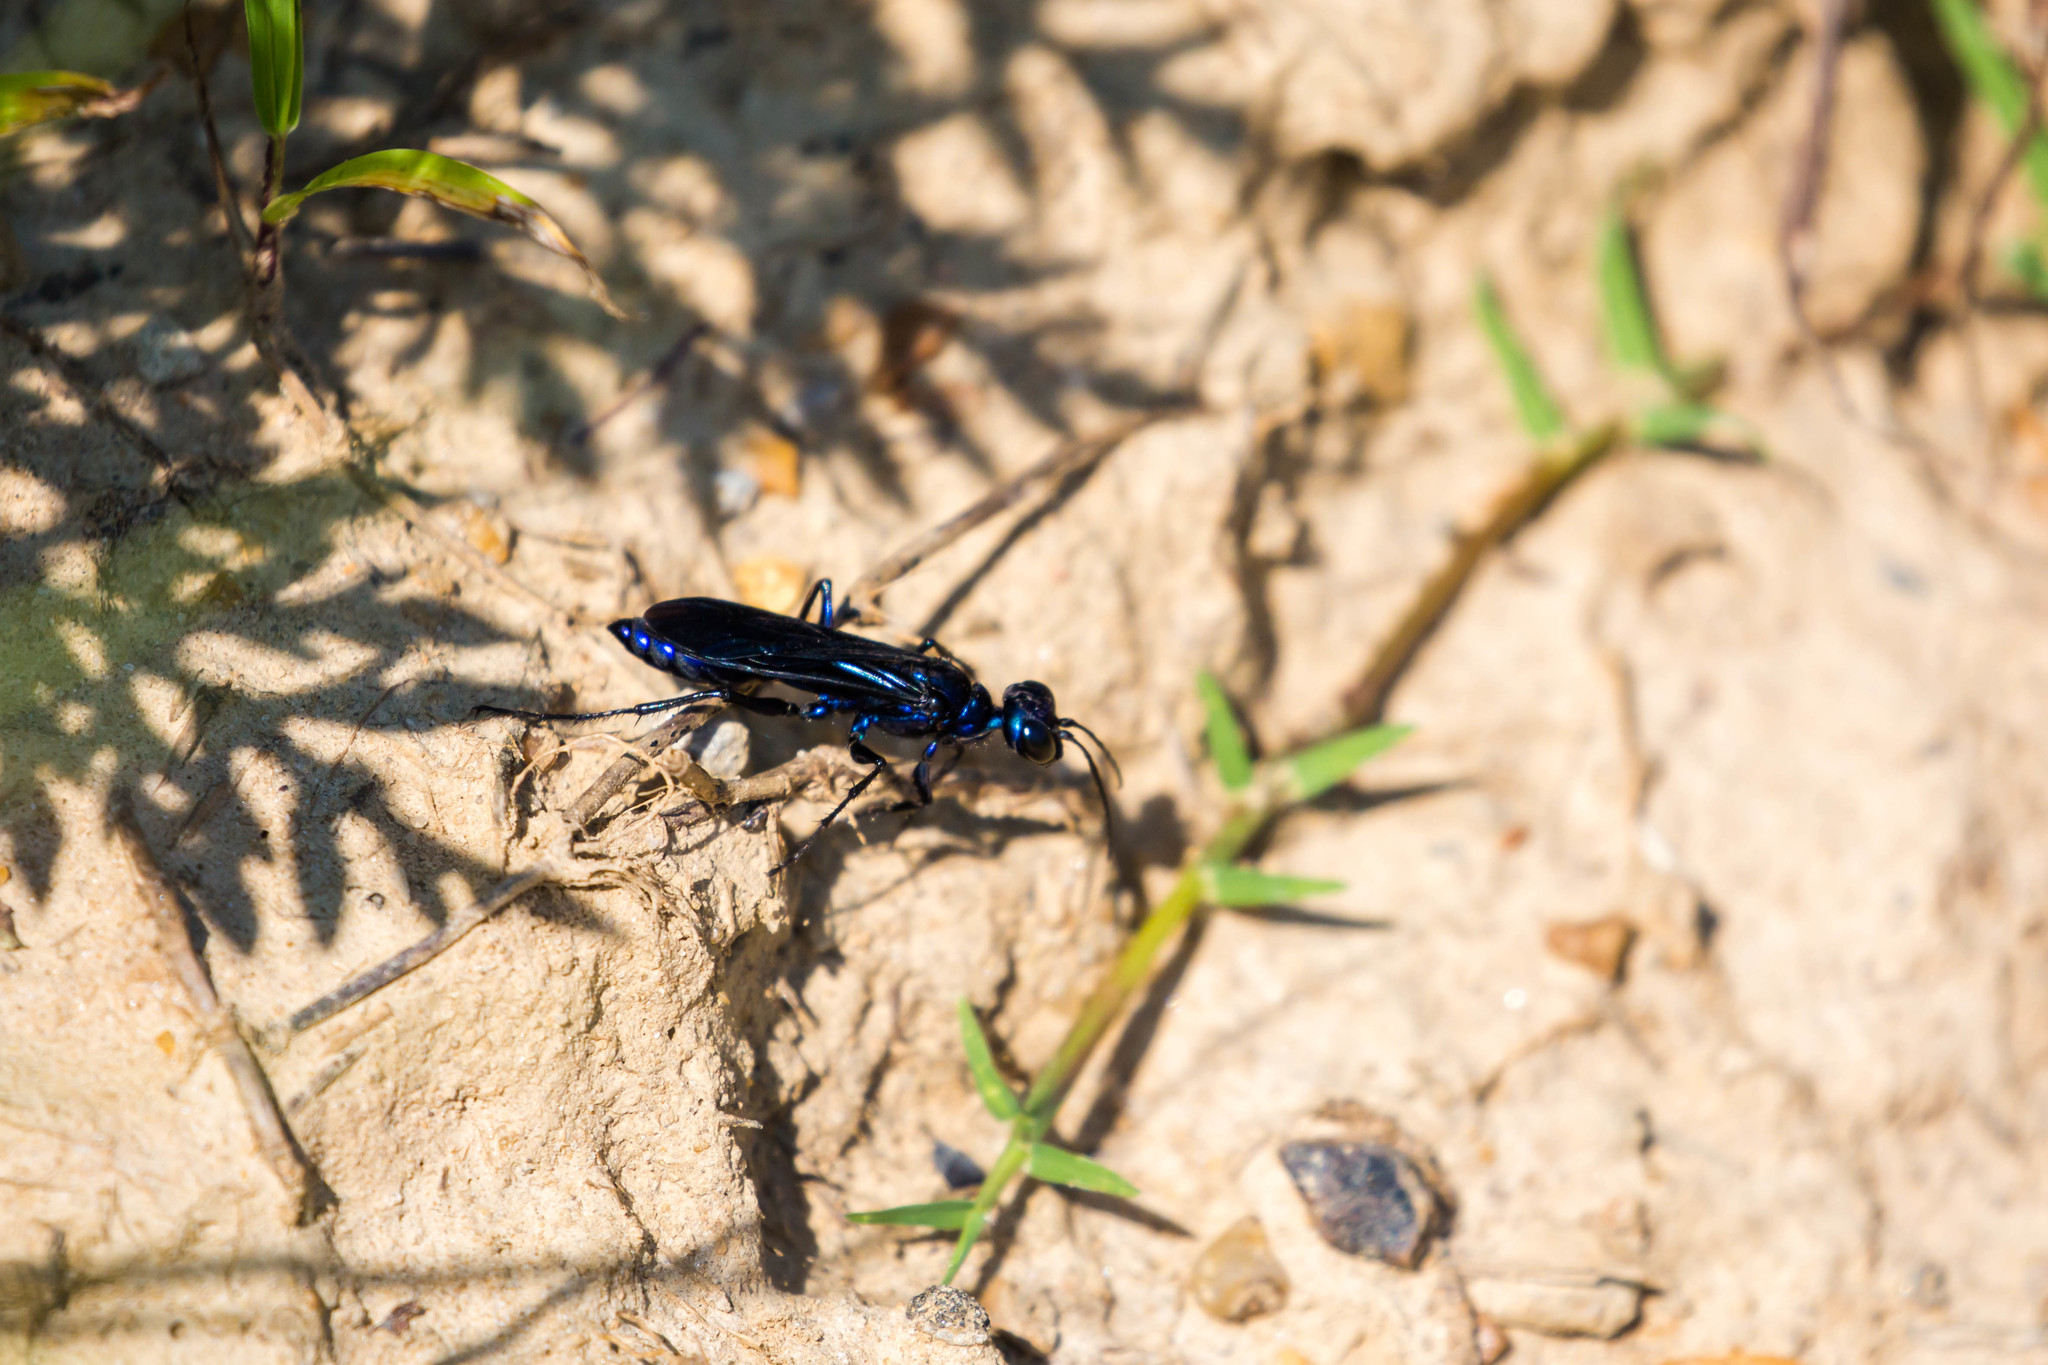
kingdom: Animalia
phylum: Arthropoda
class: Insecta
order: Hymenoptera
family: Sphecidae
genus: Chlorion
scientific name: Chlorion aerarium
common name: Steel-blue cricket hunter
